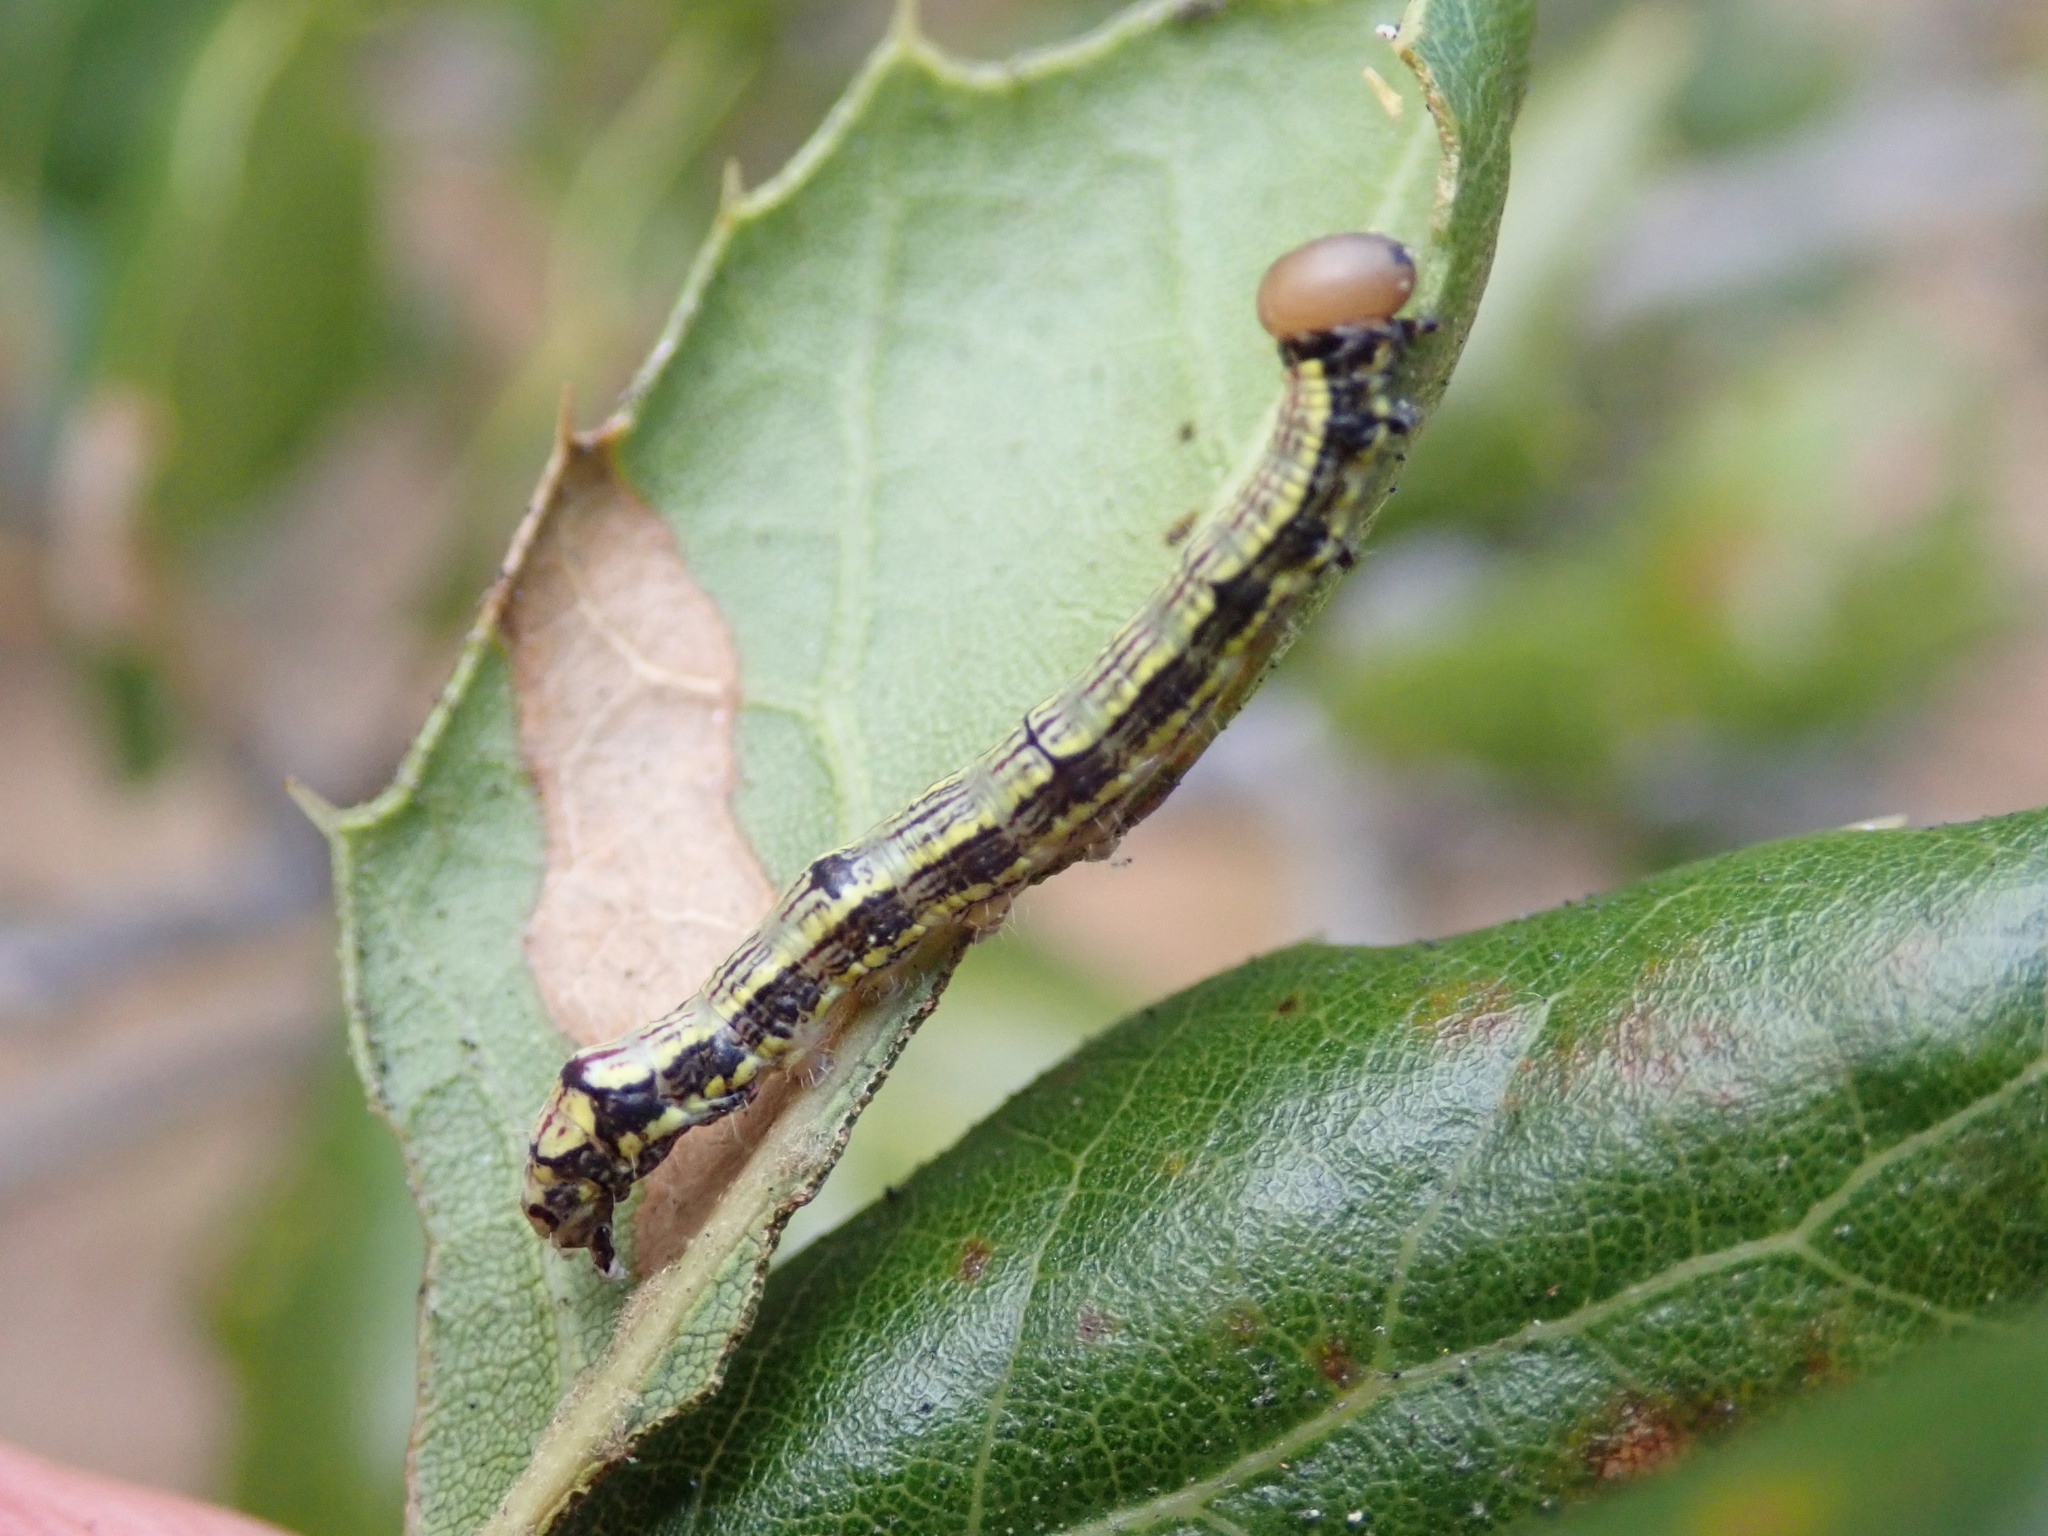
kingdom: Animalia
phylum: Arthropoda
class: Insecta
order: Lepidoptera
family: Notodontidae
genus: Phryganidia
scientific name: Phryganidia californica
